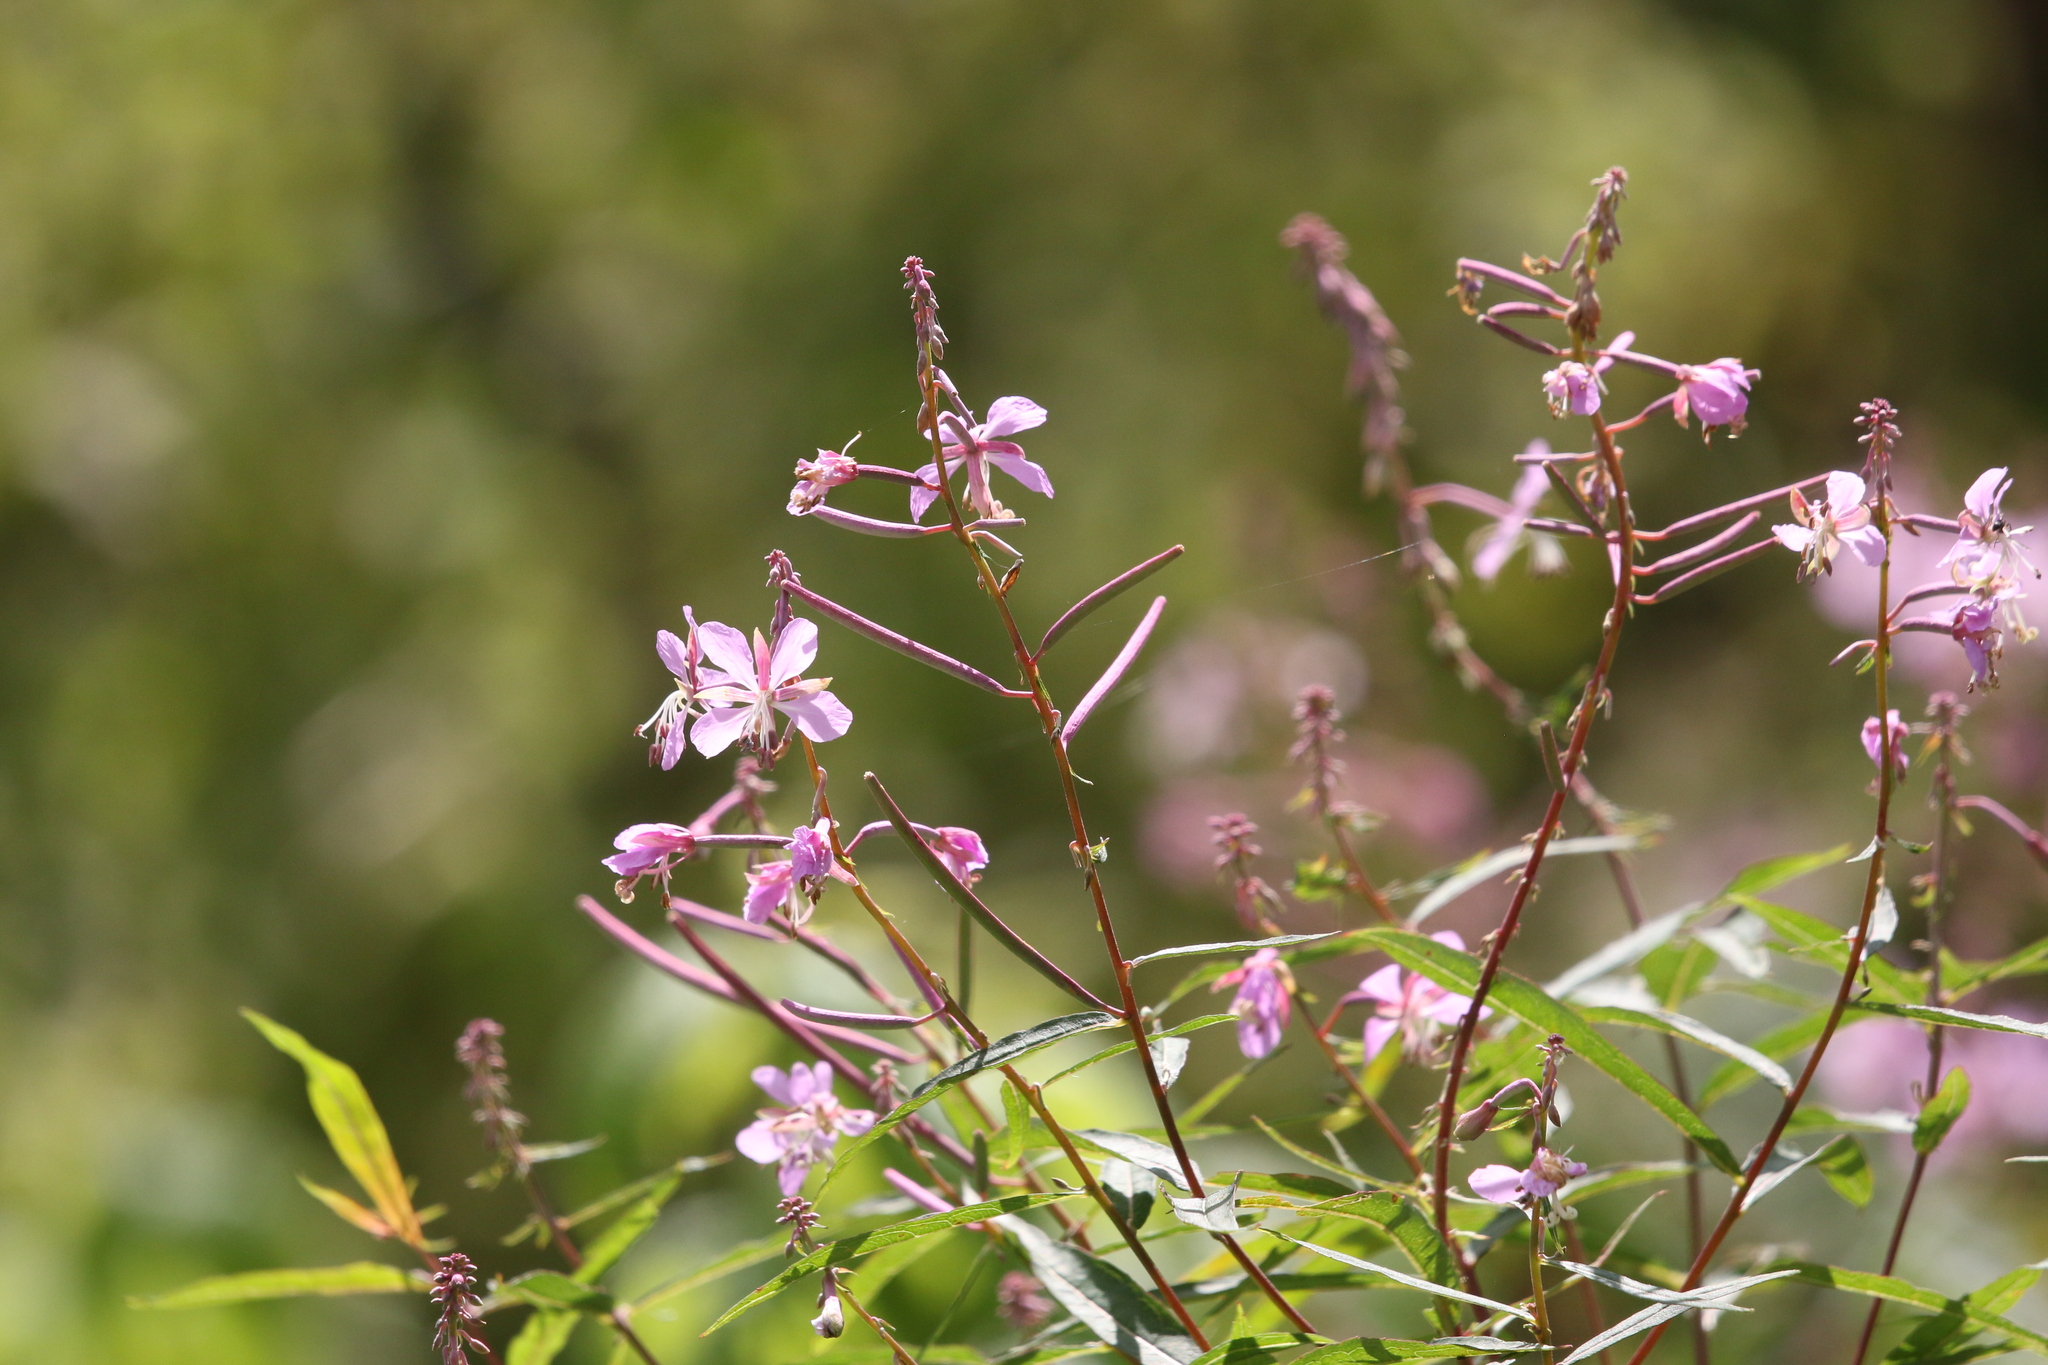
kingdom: Plantae
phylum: Tracheophyta
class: Magnoliopsida
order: Myrtales
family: Onagraceae
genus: Chamaenerion
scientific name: Chamaenerion angustifolium
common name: Fireweed
